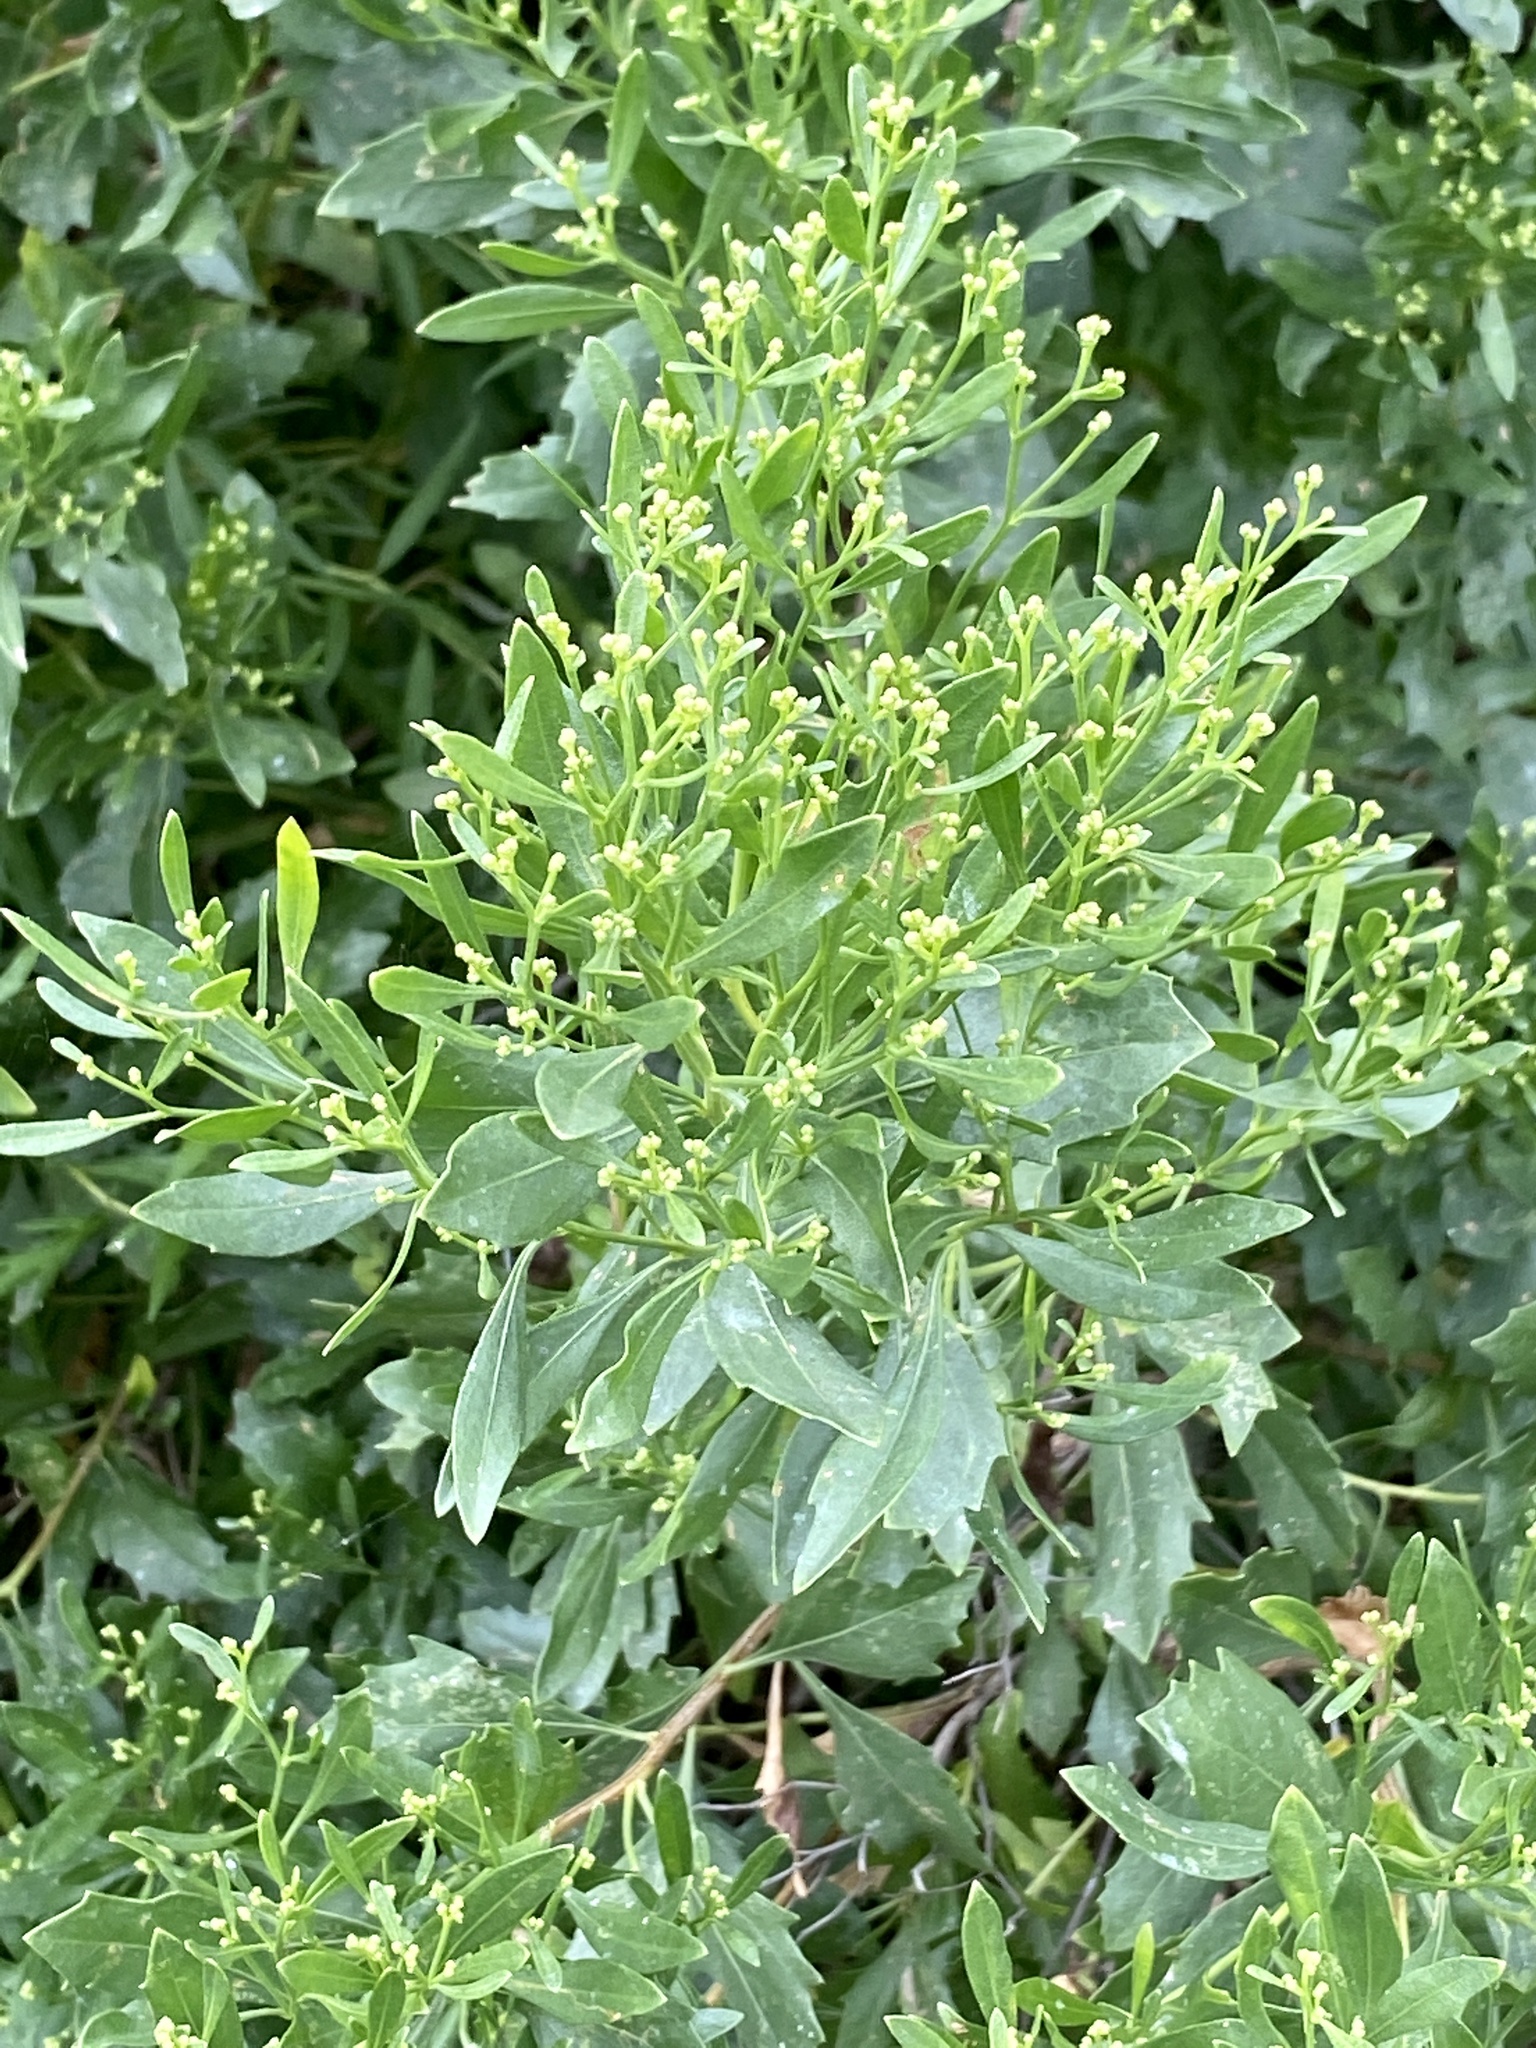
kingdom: Plantae
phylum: Tracheophyta
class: Magnoliopsida
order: Asterales
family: Asteraceae
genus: Baccharis
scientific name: Baccharis halimifolia
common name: Eastern baccharis
